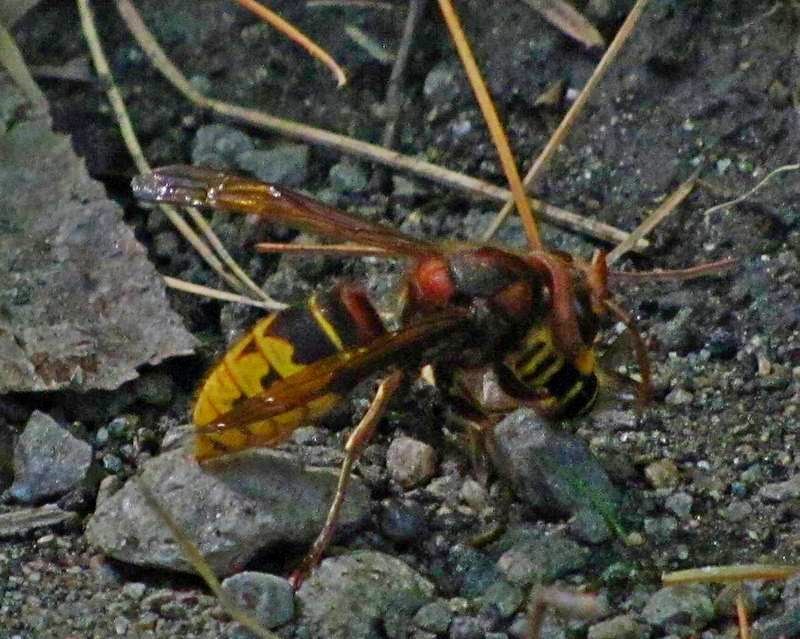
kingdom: Animalia
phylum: Arthropoda
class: Insecta
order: Hymenoptera
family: Vespidae
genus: Vespa
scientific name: Vespa crabro
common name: Hornet
